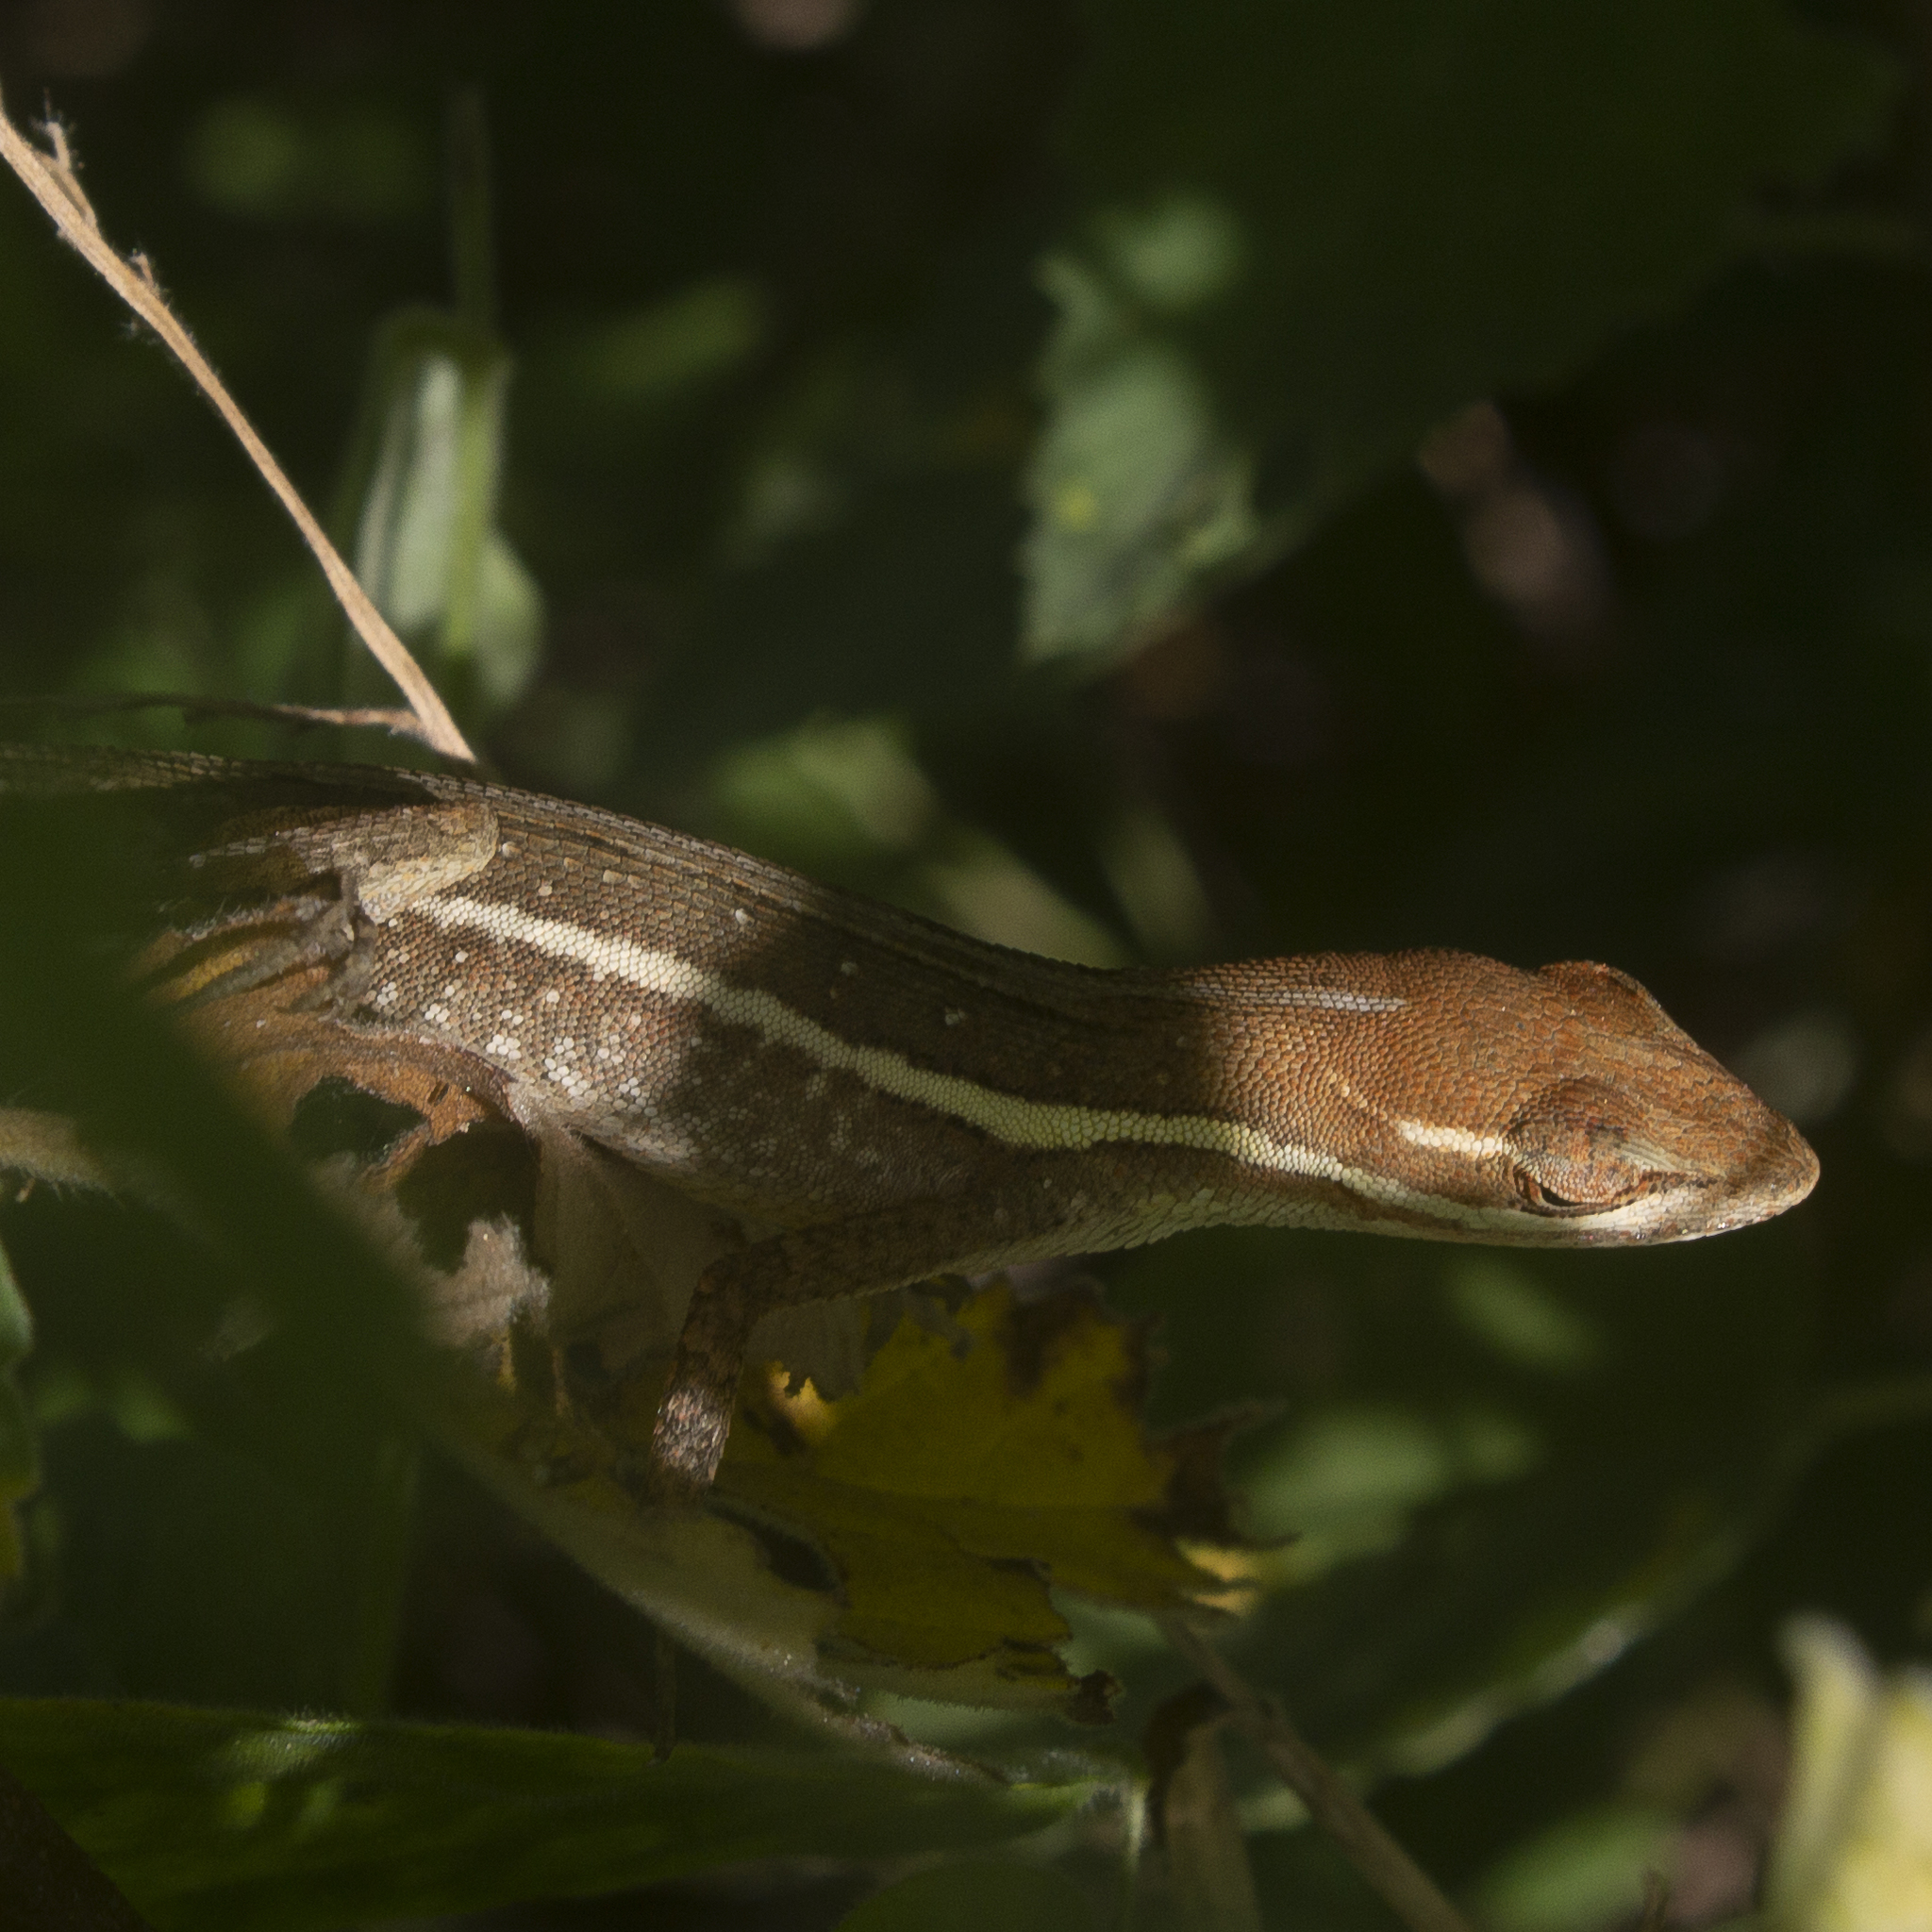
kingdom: Animalia
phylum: Chordata
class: Squamata
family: Dactyloidae
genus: Anolis
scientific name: Anolis auratus
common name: Grass anole
